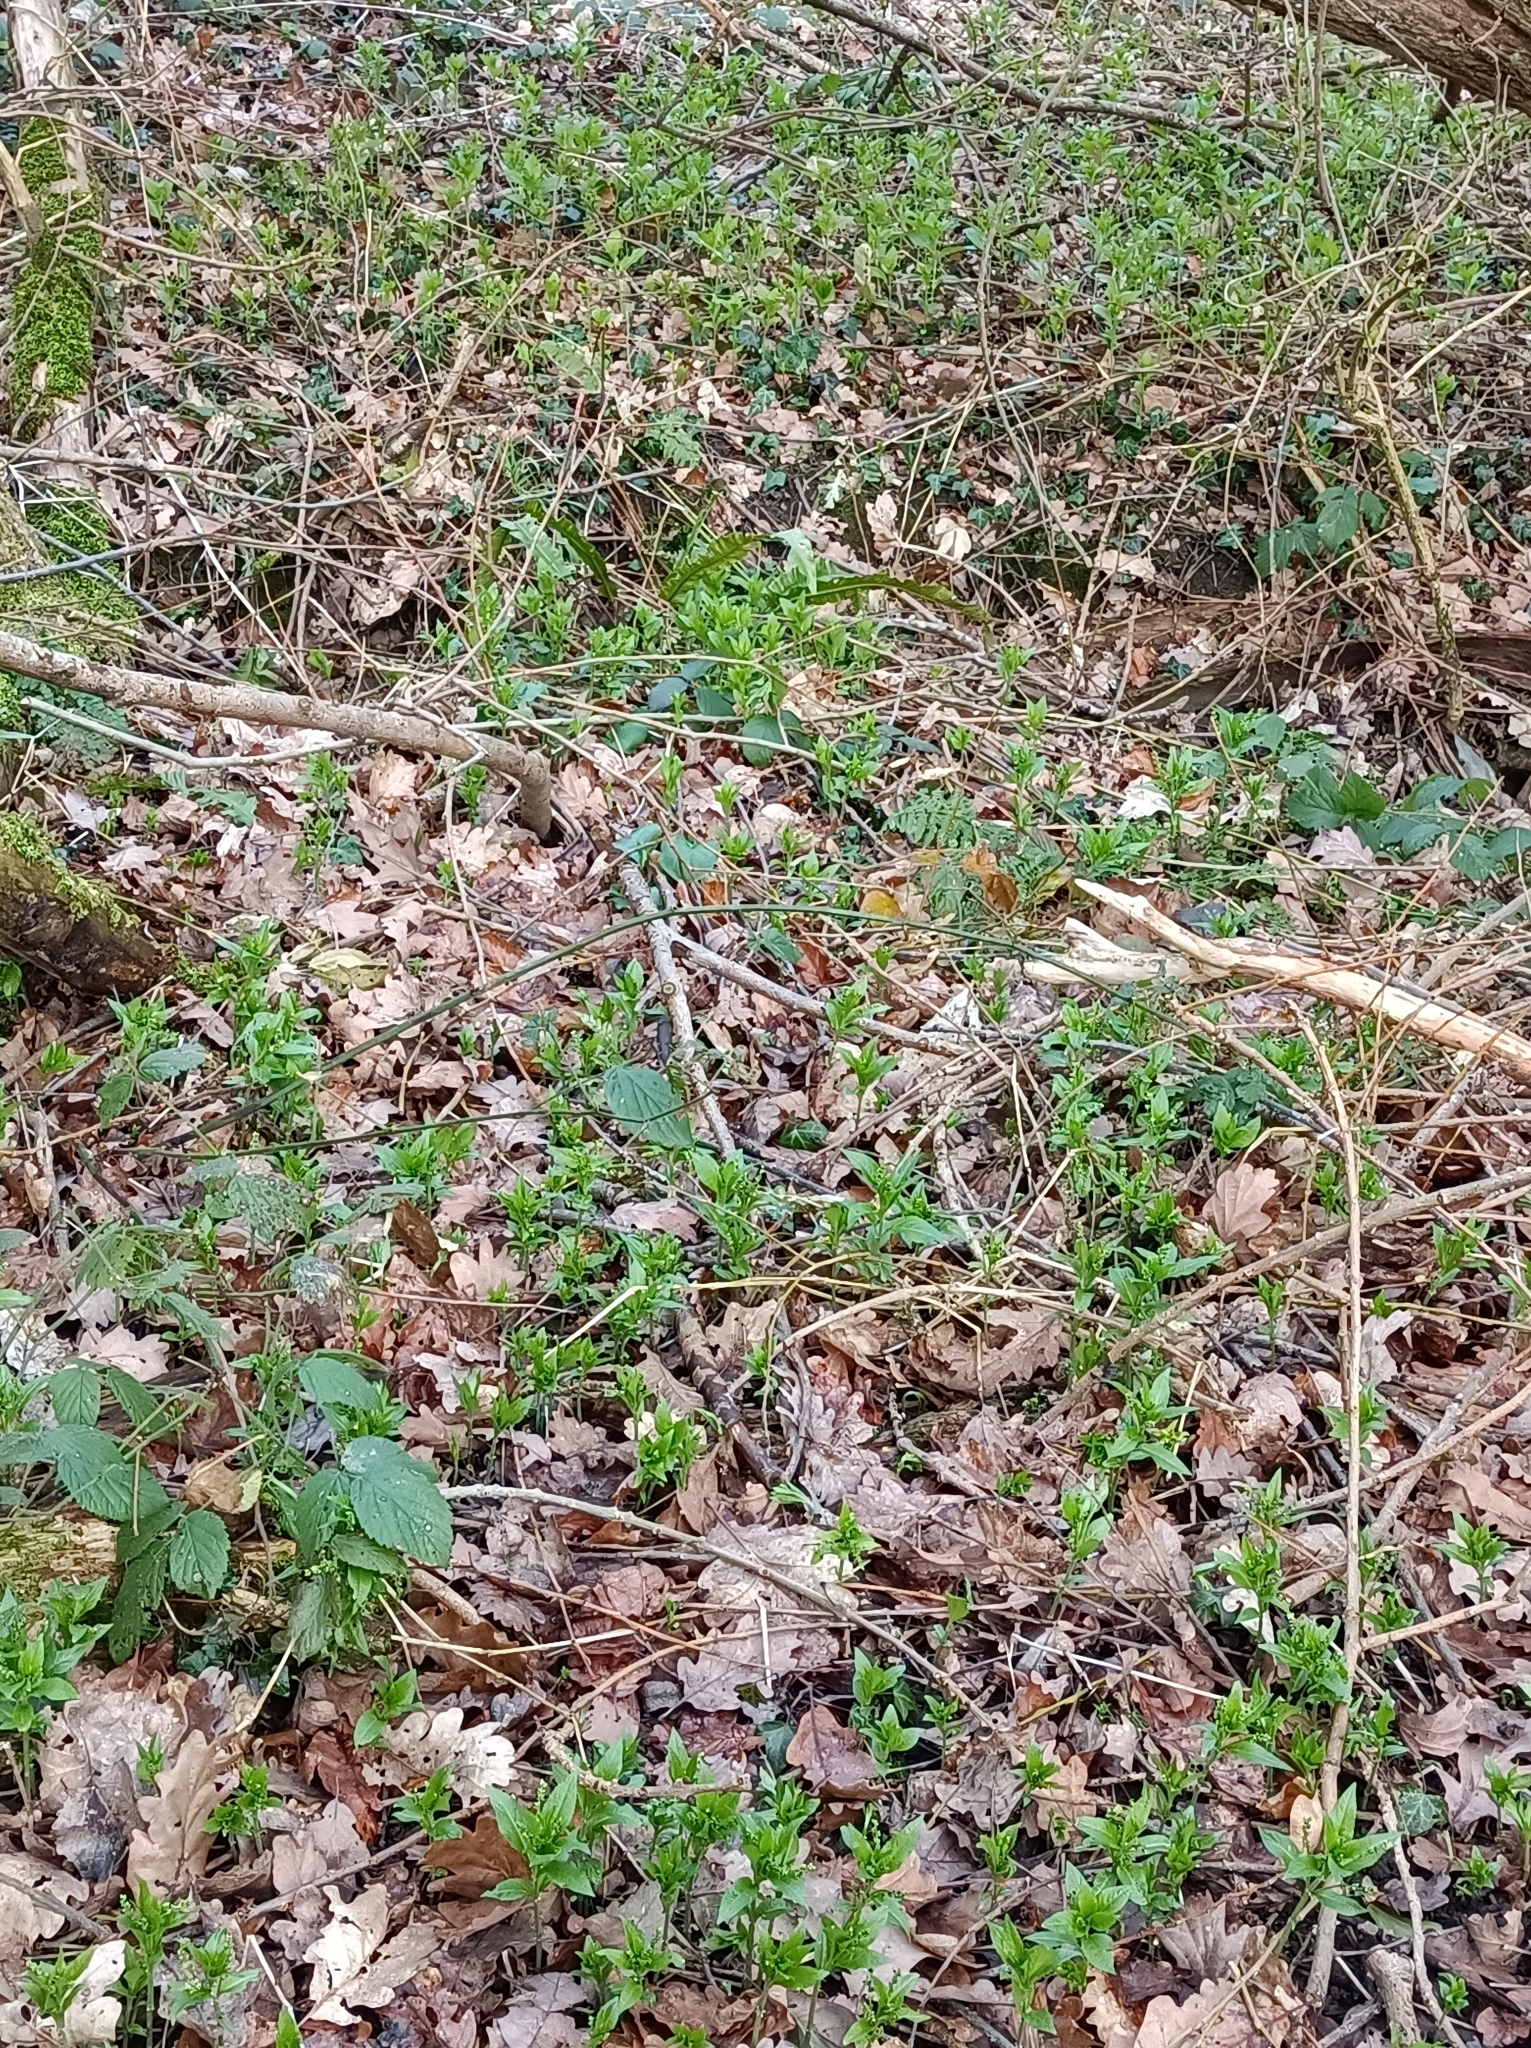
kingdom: Plantae
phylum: Tracheophyta
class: Magnoliopsida
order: Malpighiales
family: Euphorbiaceae
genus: Mercurialis
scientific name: Mercurialis perennis
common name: Dog mercury
